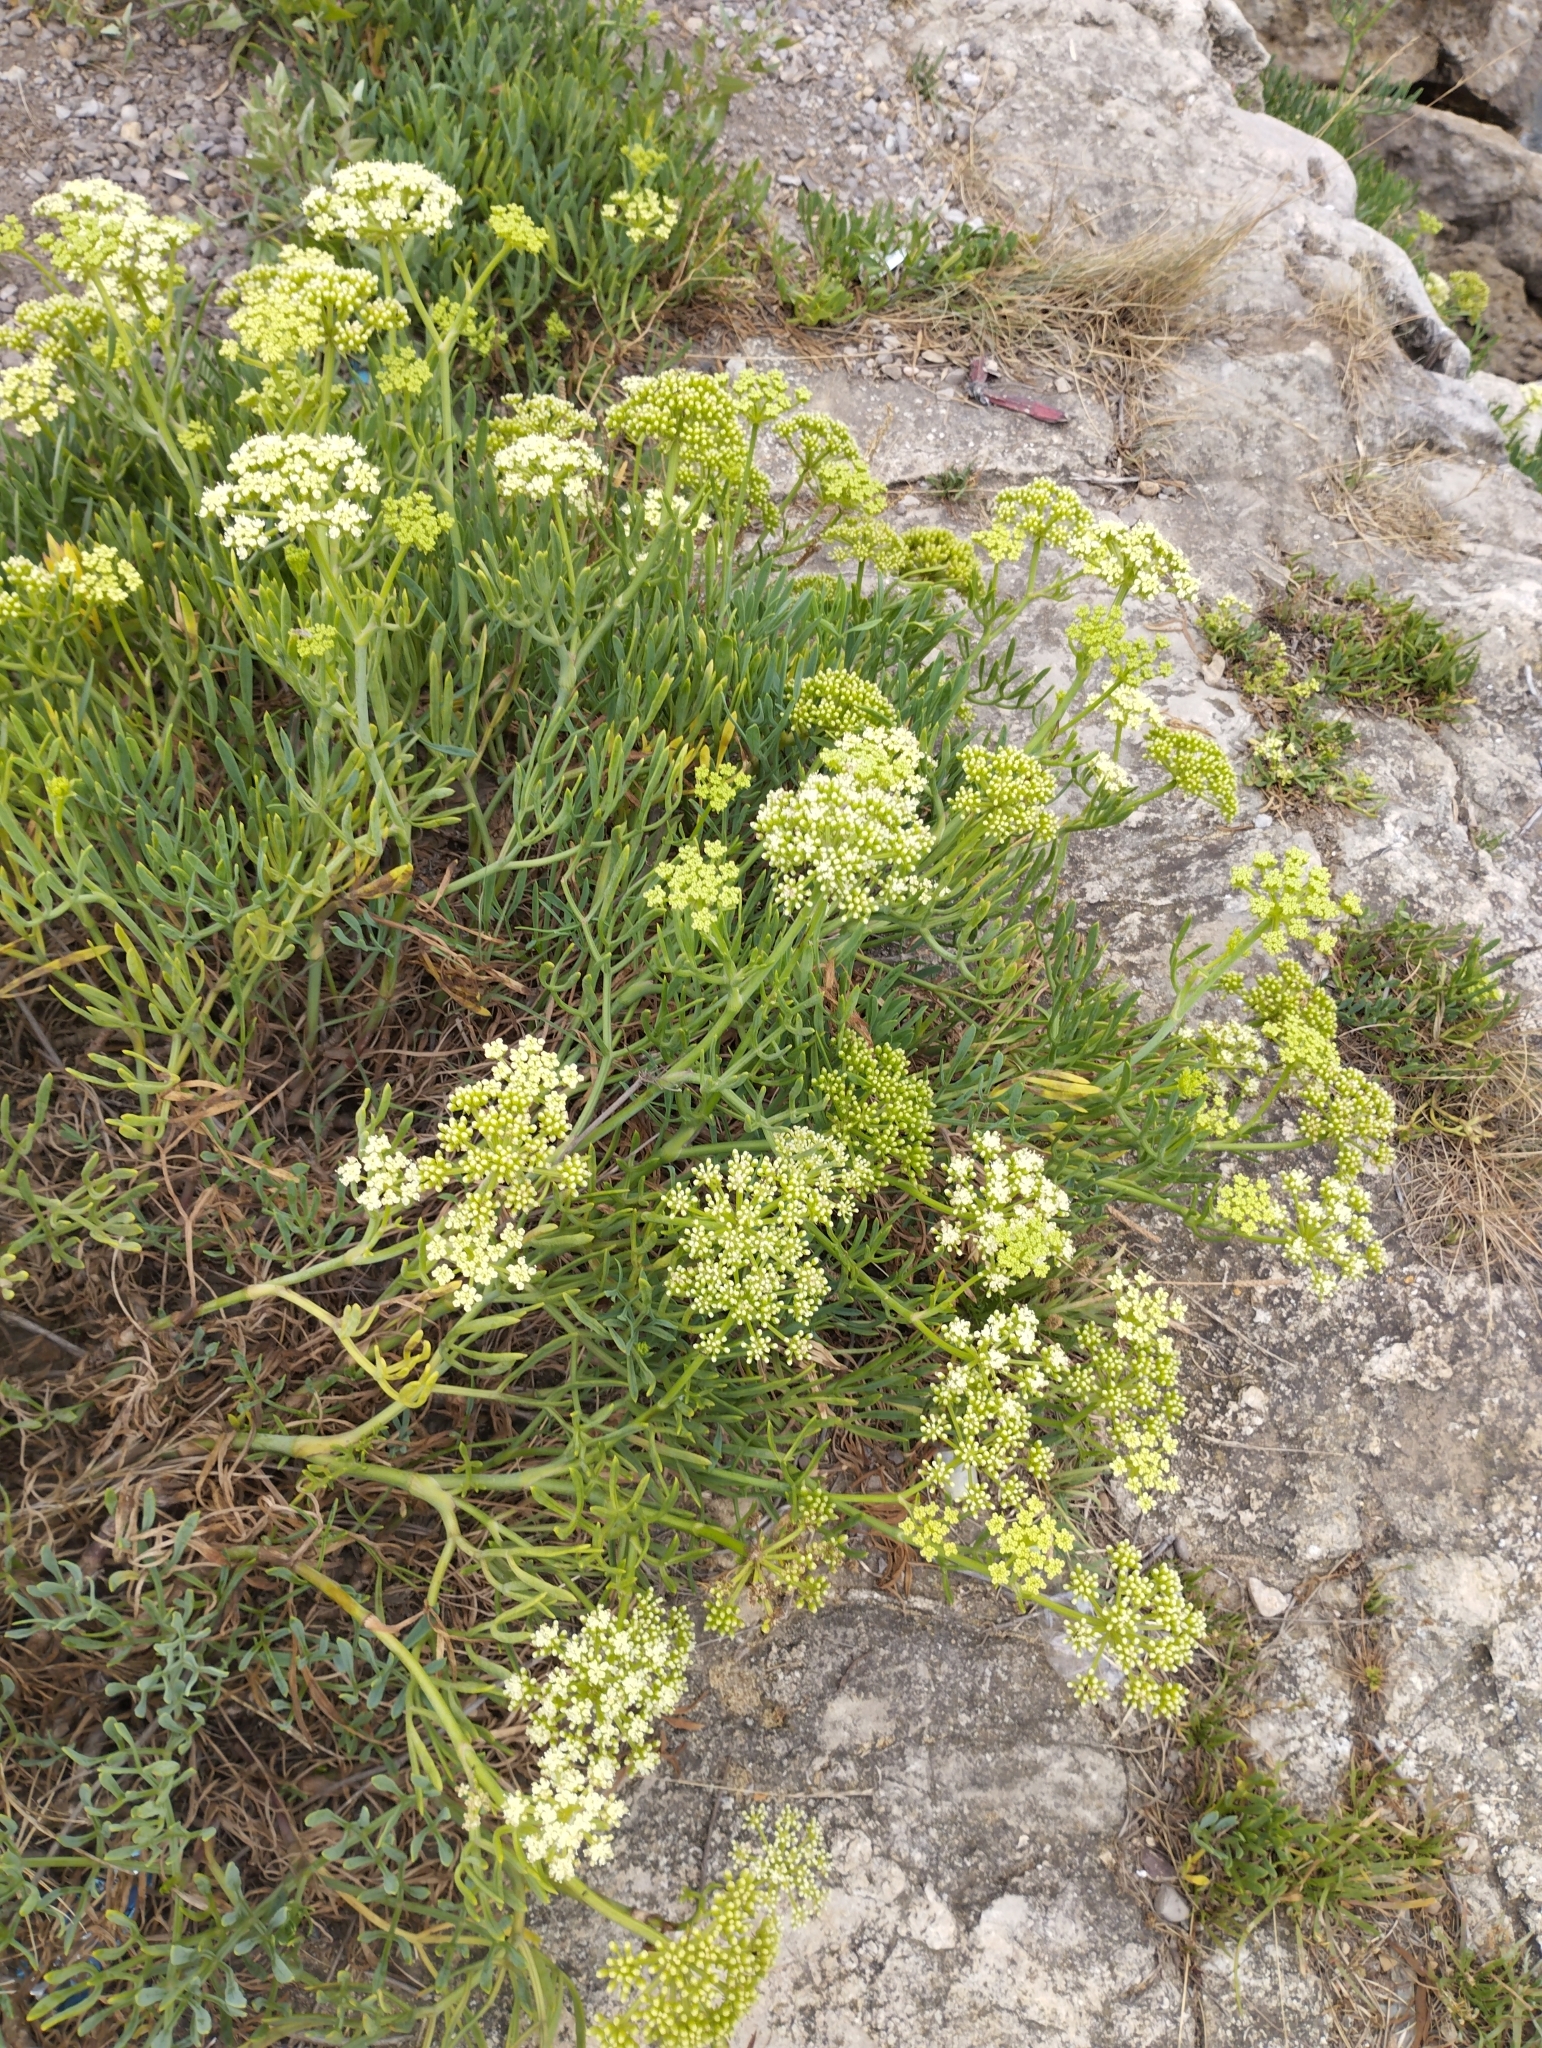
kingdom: Plantae
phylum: Tracheophyta
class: Magnoliopsida
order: Apiales
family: Apiaceae
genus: Crithmum
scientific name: Crithmum maritimum
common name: Rock samphire
